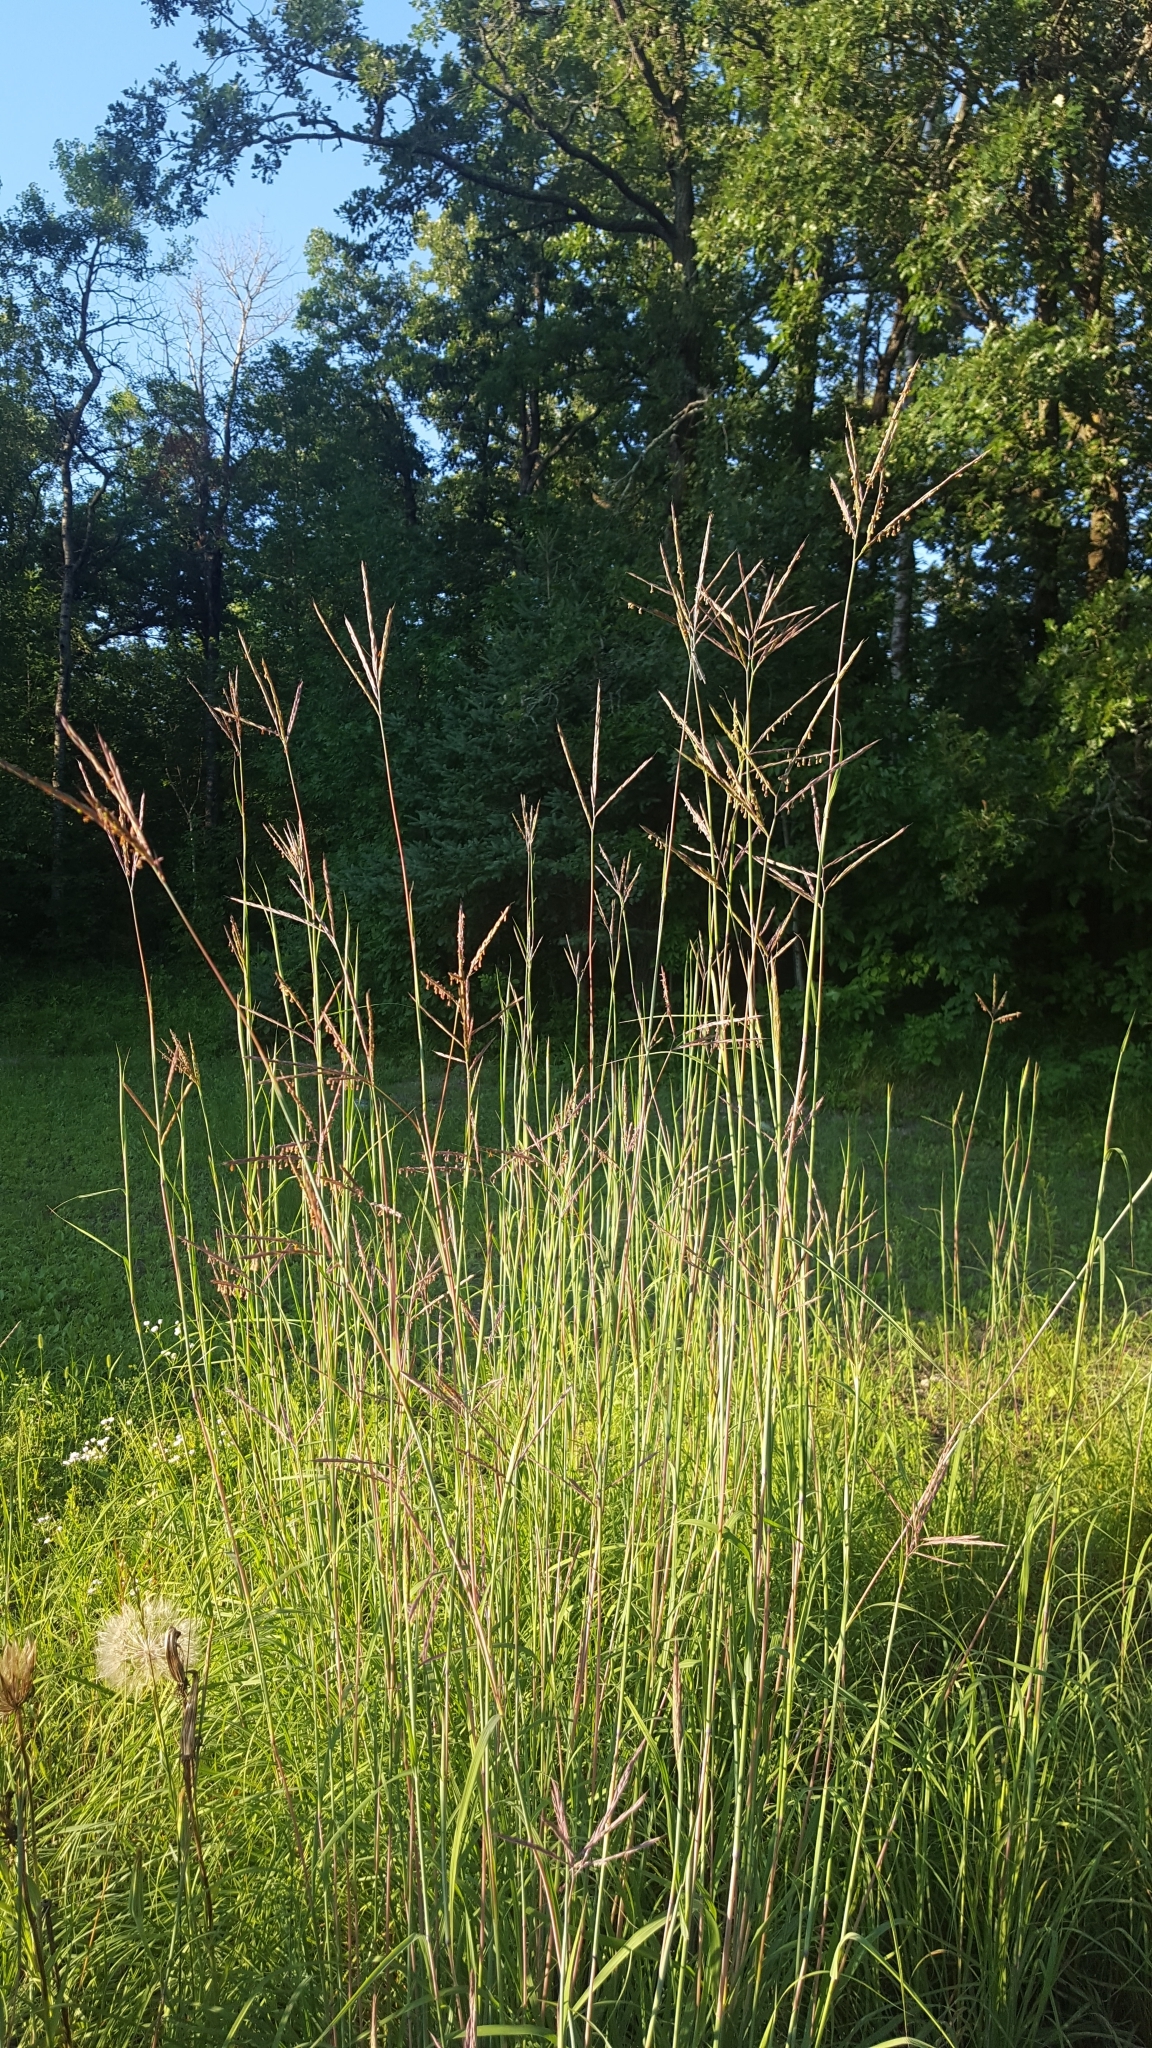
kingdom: Plantae
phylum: Tracheophyta
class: Liliopsida
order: Poales
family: Poaceae
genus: Andropogon
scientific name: Andropogon gerardi
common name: Big bluestem
